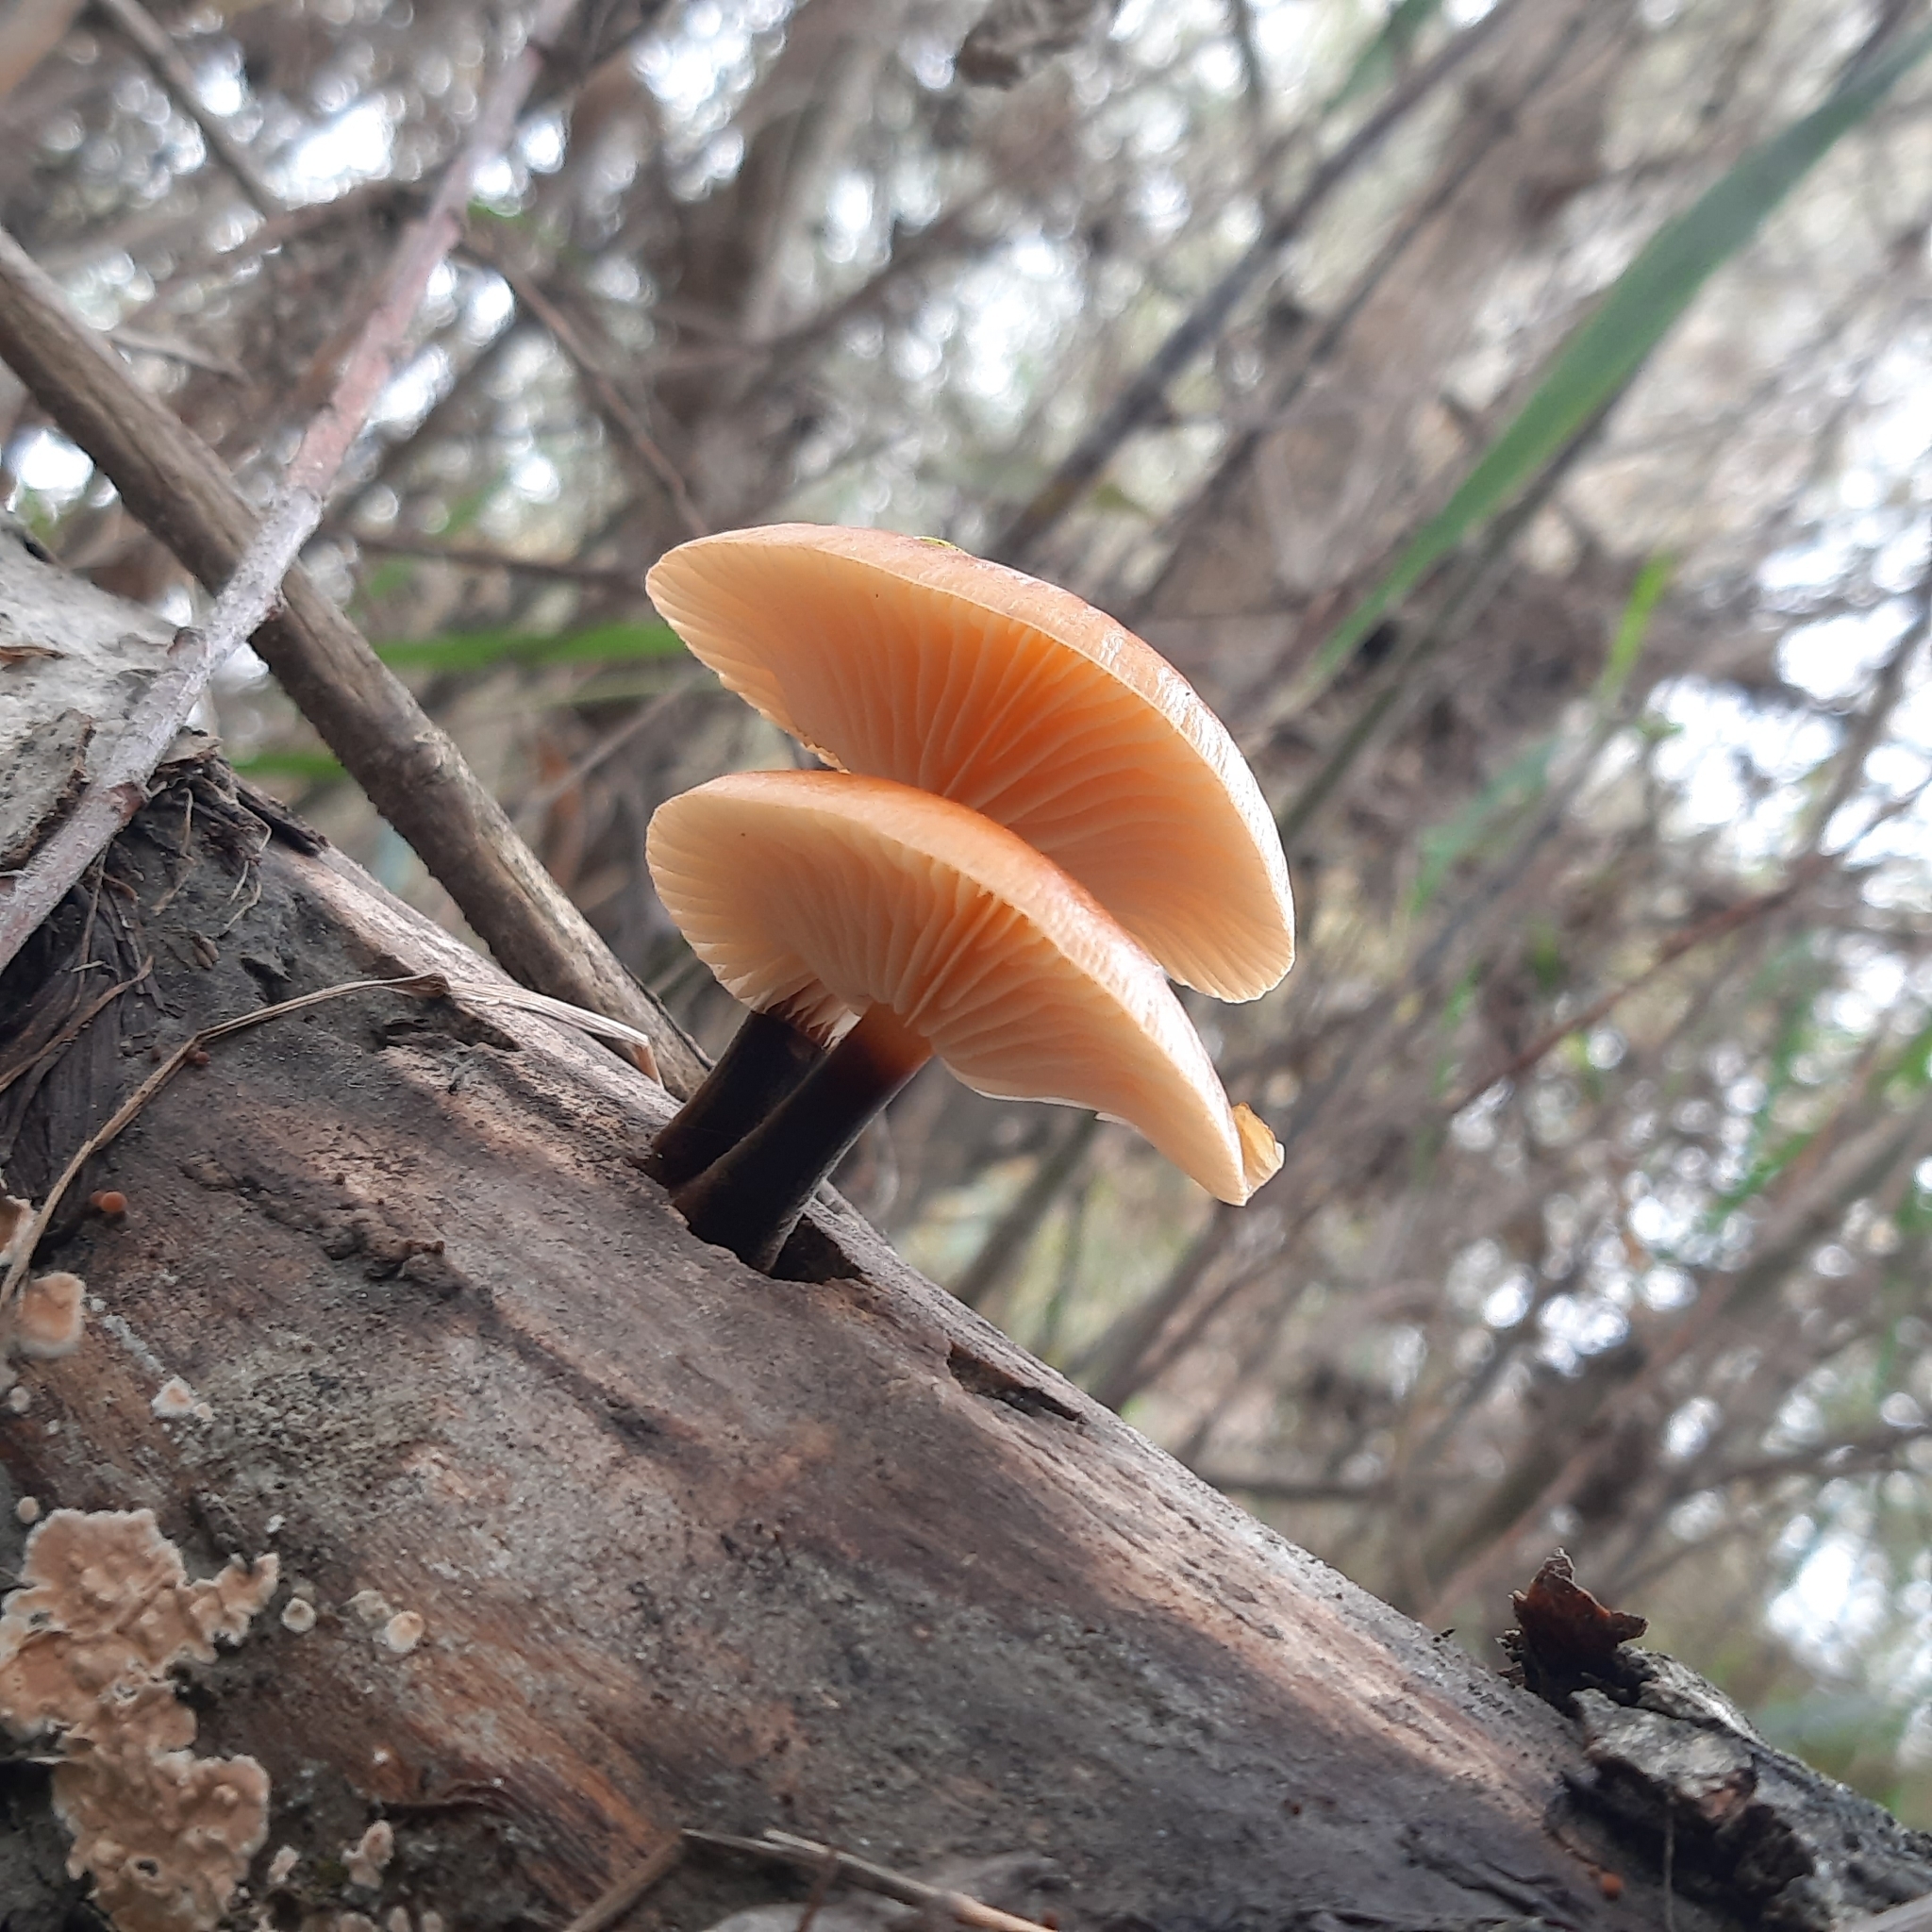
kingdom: Fungi
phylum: Basidiomycota
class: Agaricomycetes
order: Agaricales
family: Physalacriaceae
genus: Flammulina
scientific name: Flammulina
